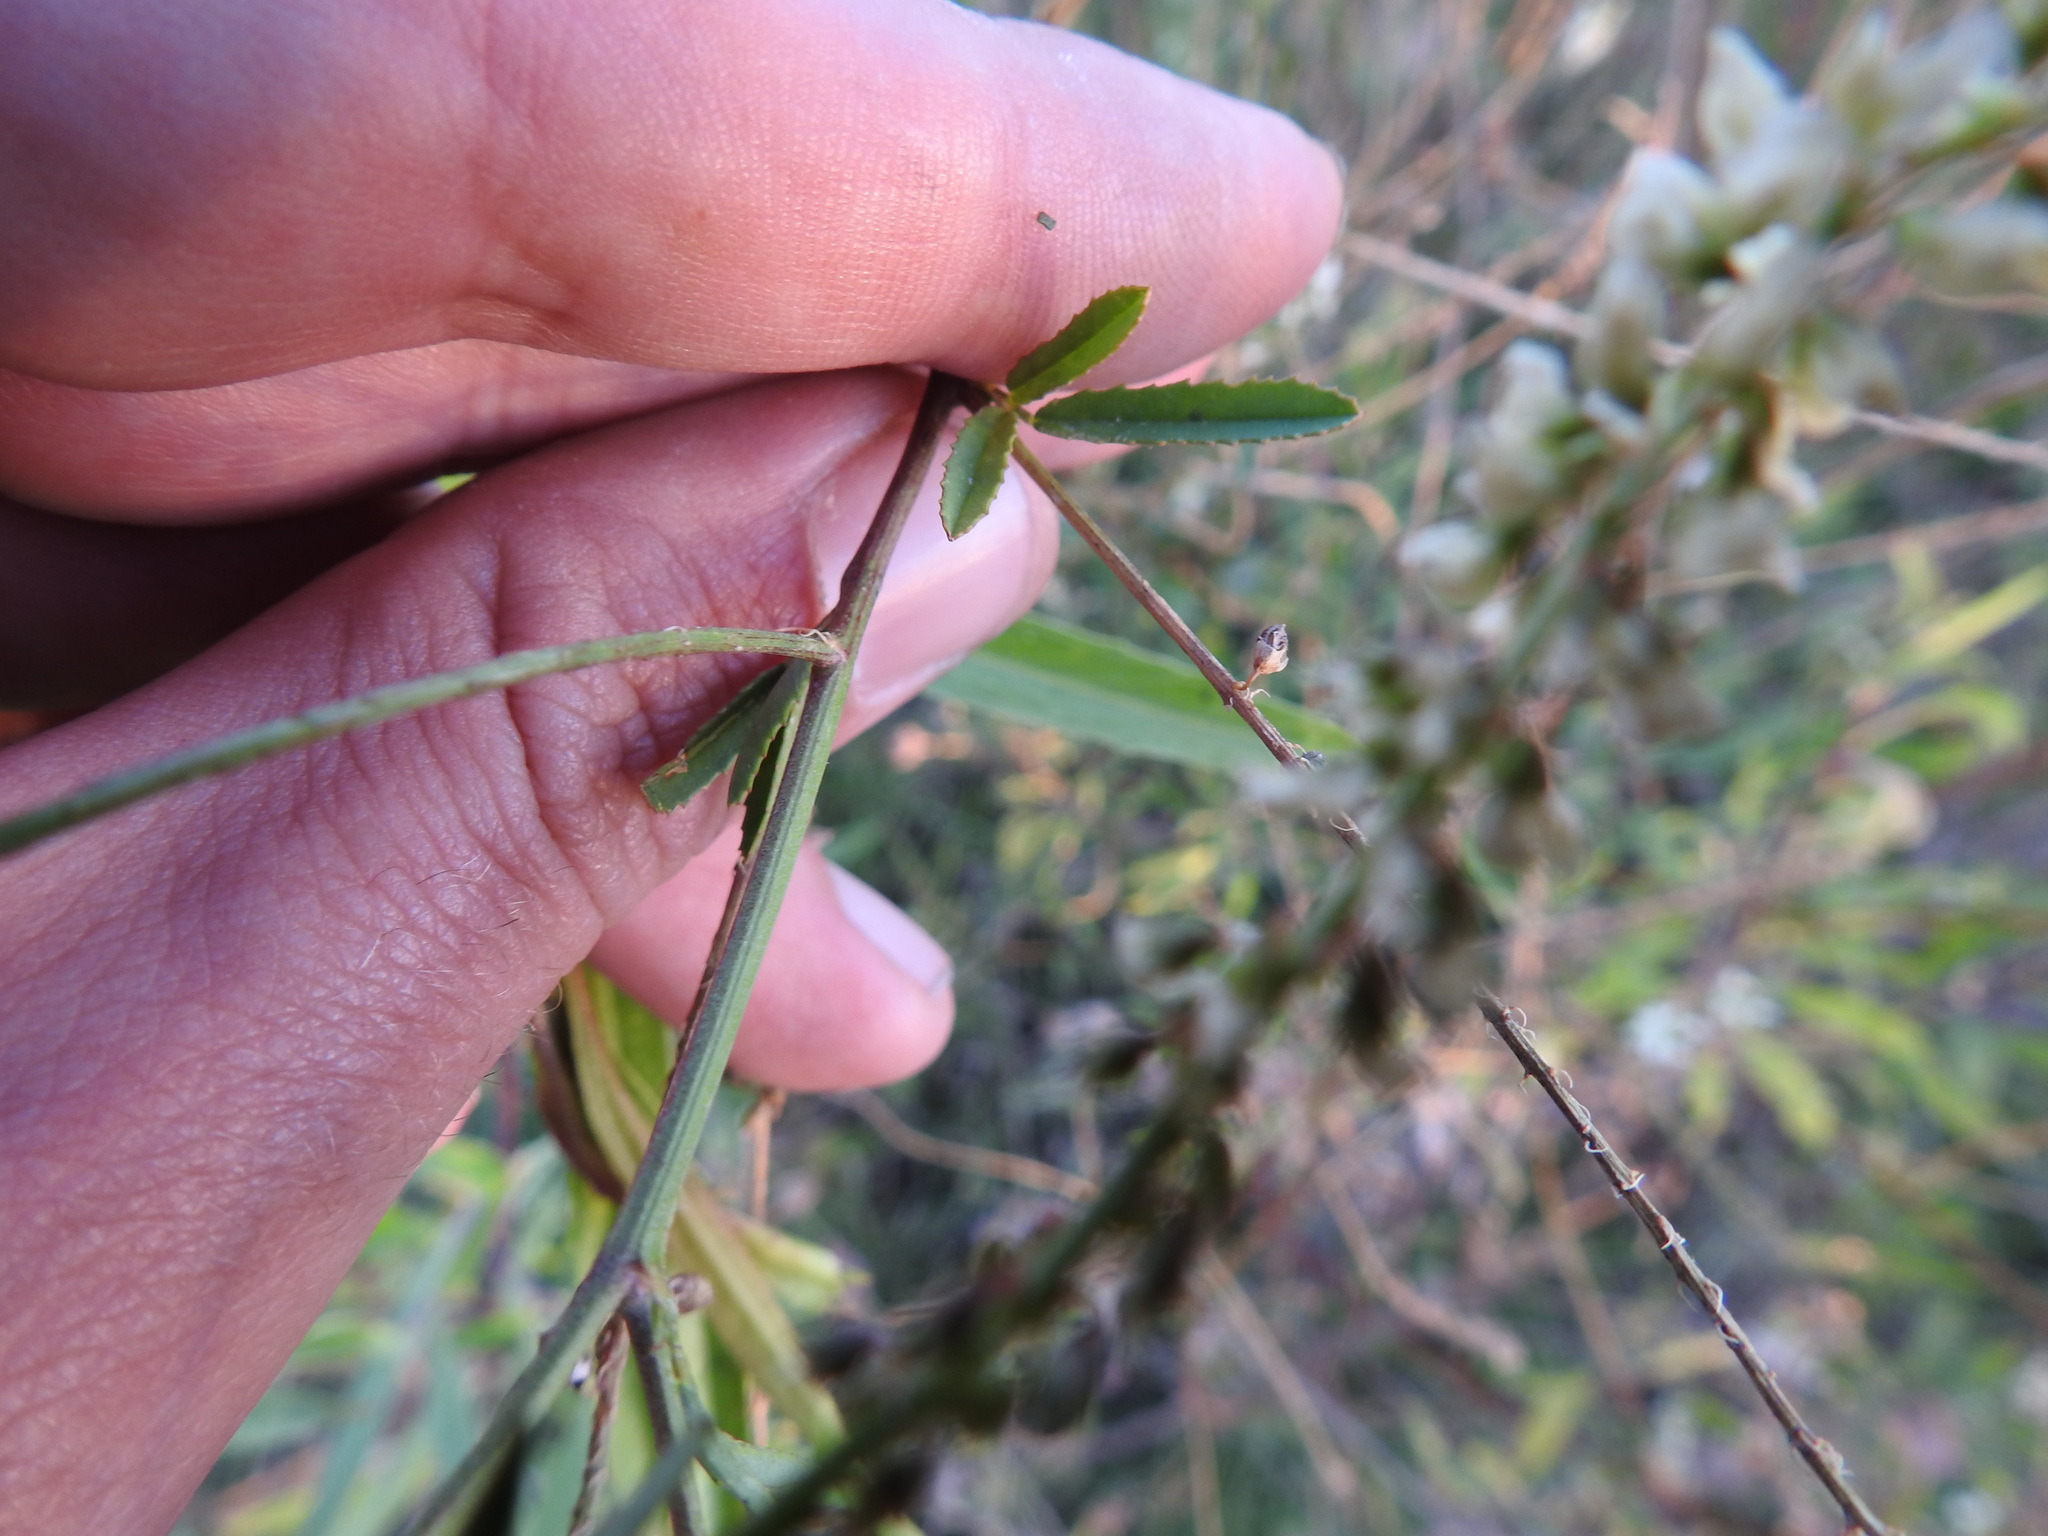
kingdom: Plantae
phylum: Tracheophyta
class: Magnoliopsida
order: Fabales
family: Fabaceae
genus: Melilotus
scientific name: Melilotus albus
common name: White melilot
